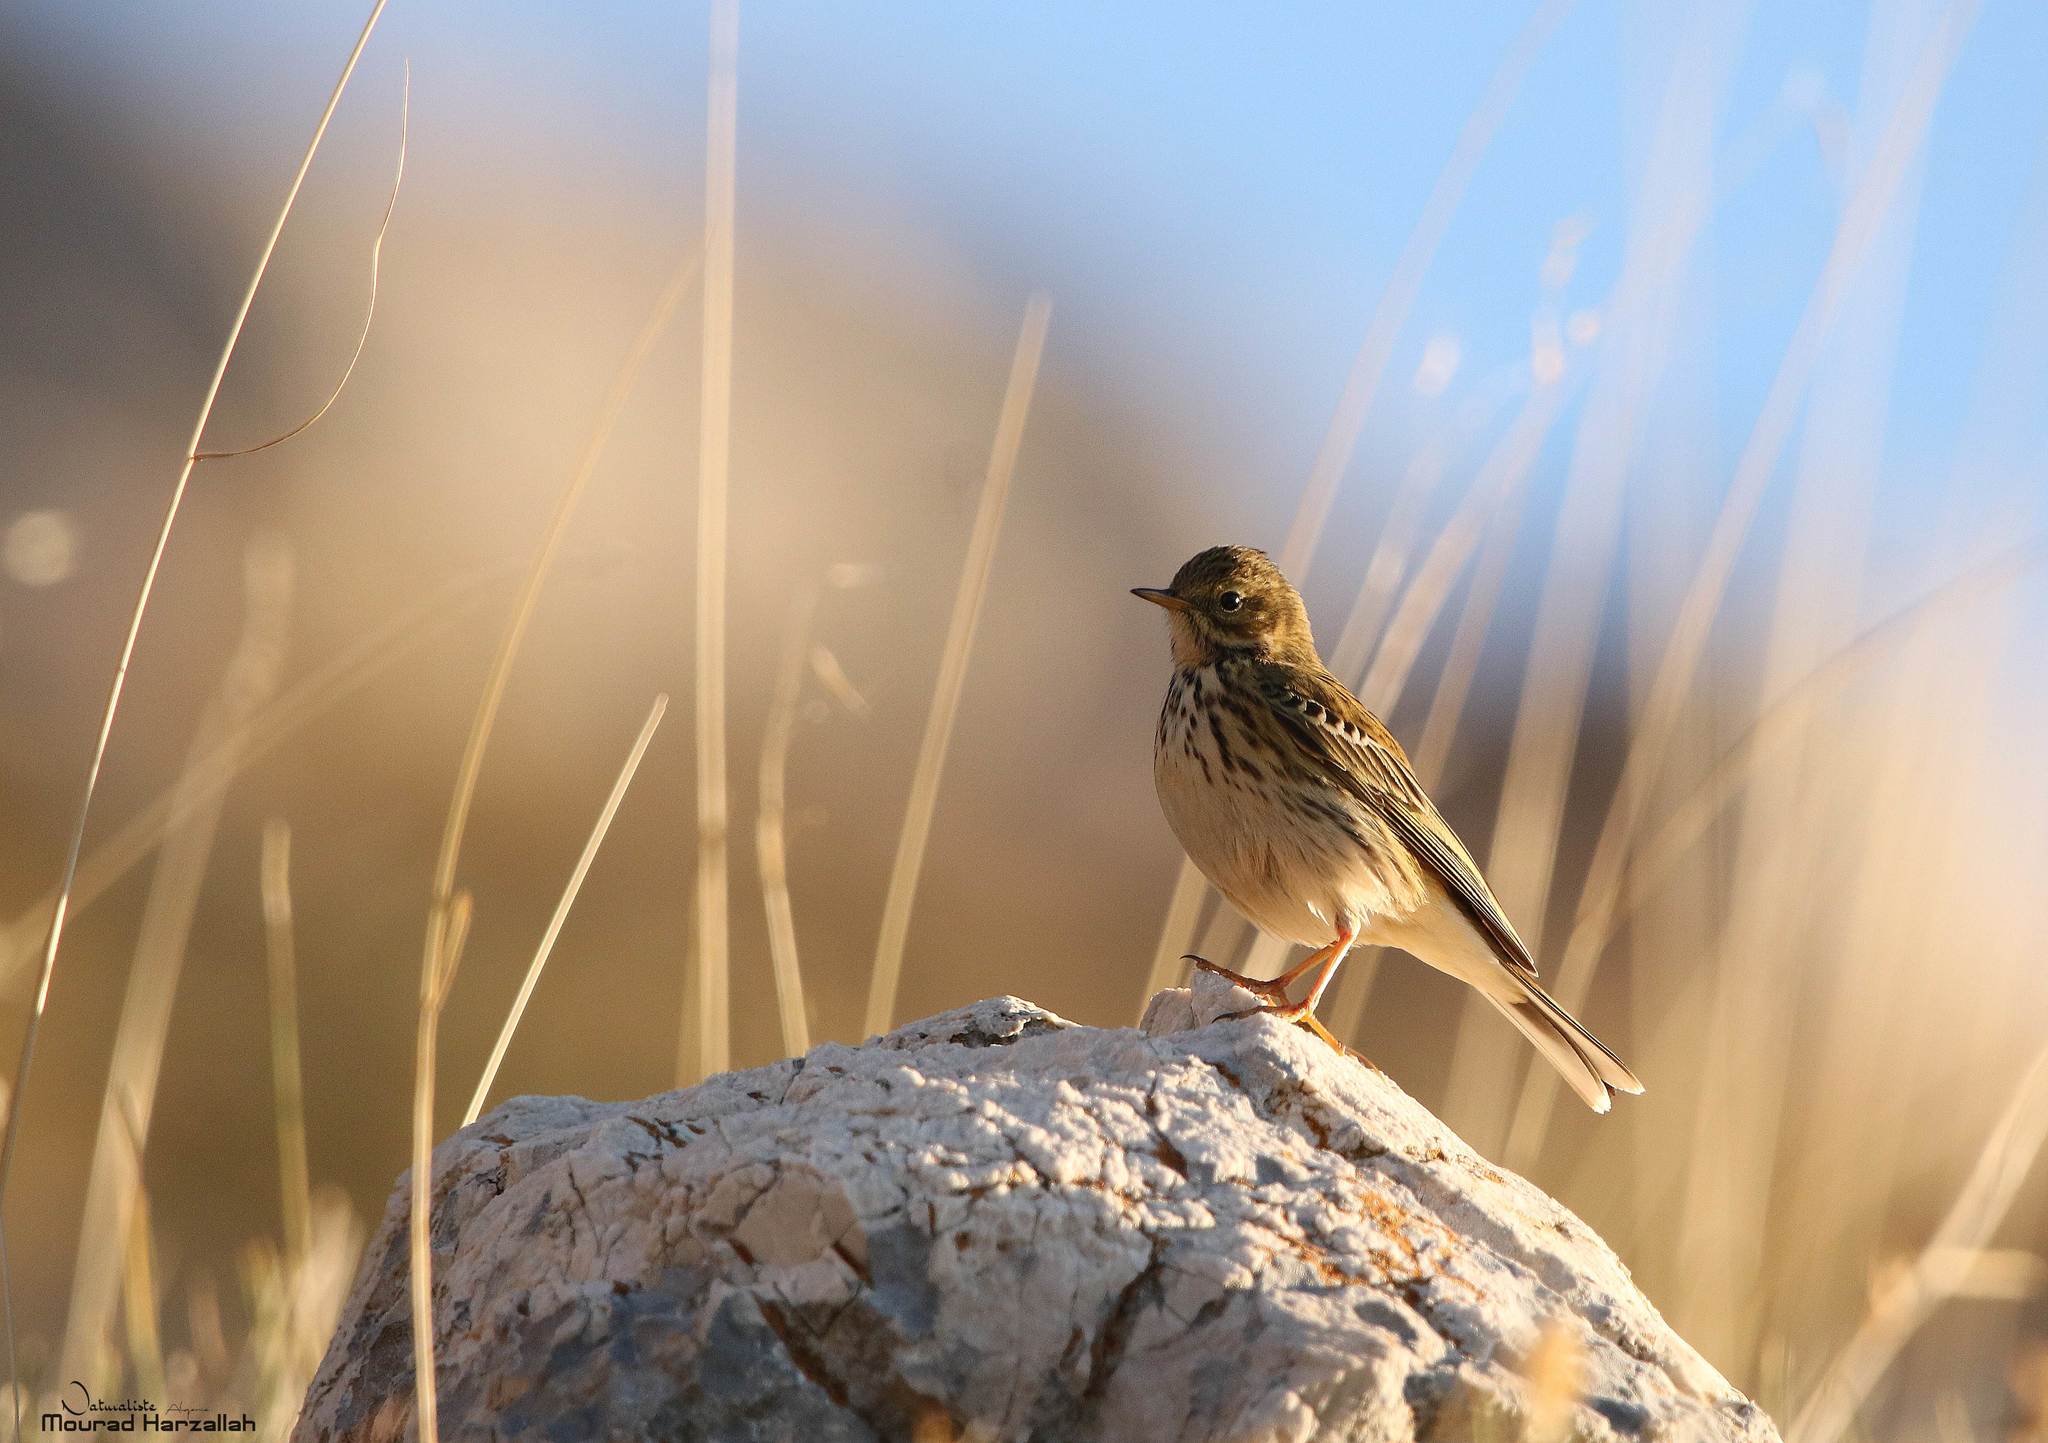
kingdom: Animalia
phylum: Chordata
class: Aves
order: Passeriformes
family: Motacillidae
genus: Anthus
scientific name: Anthus pratensis
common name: Meadow pipit
